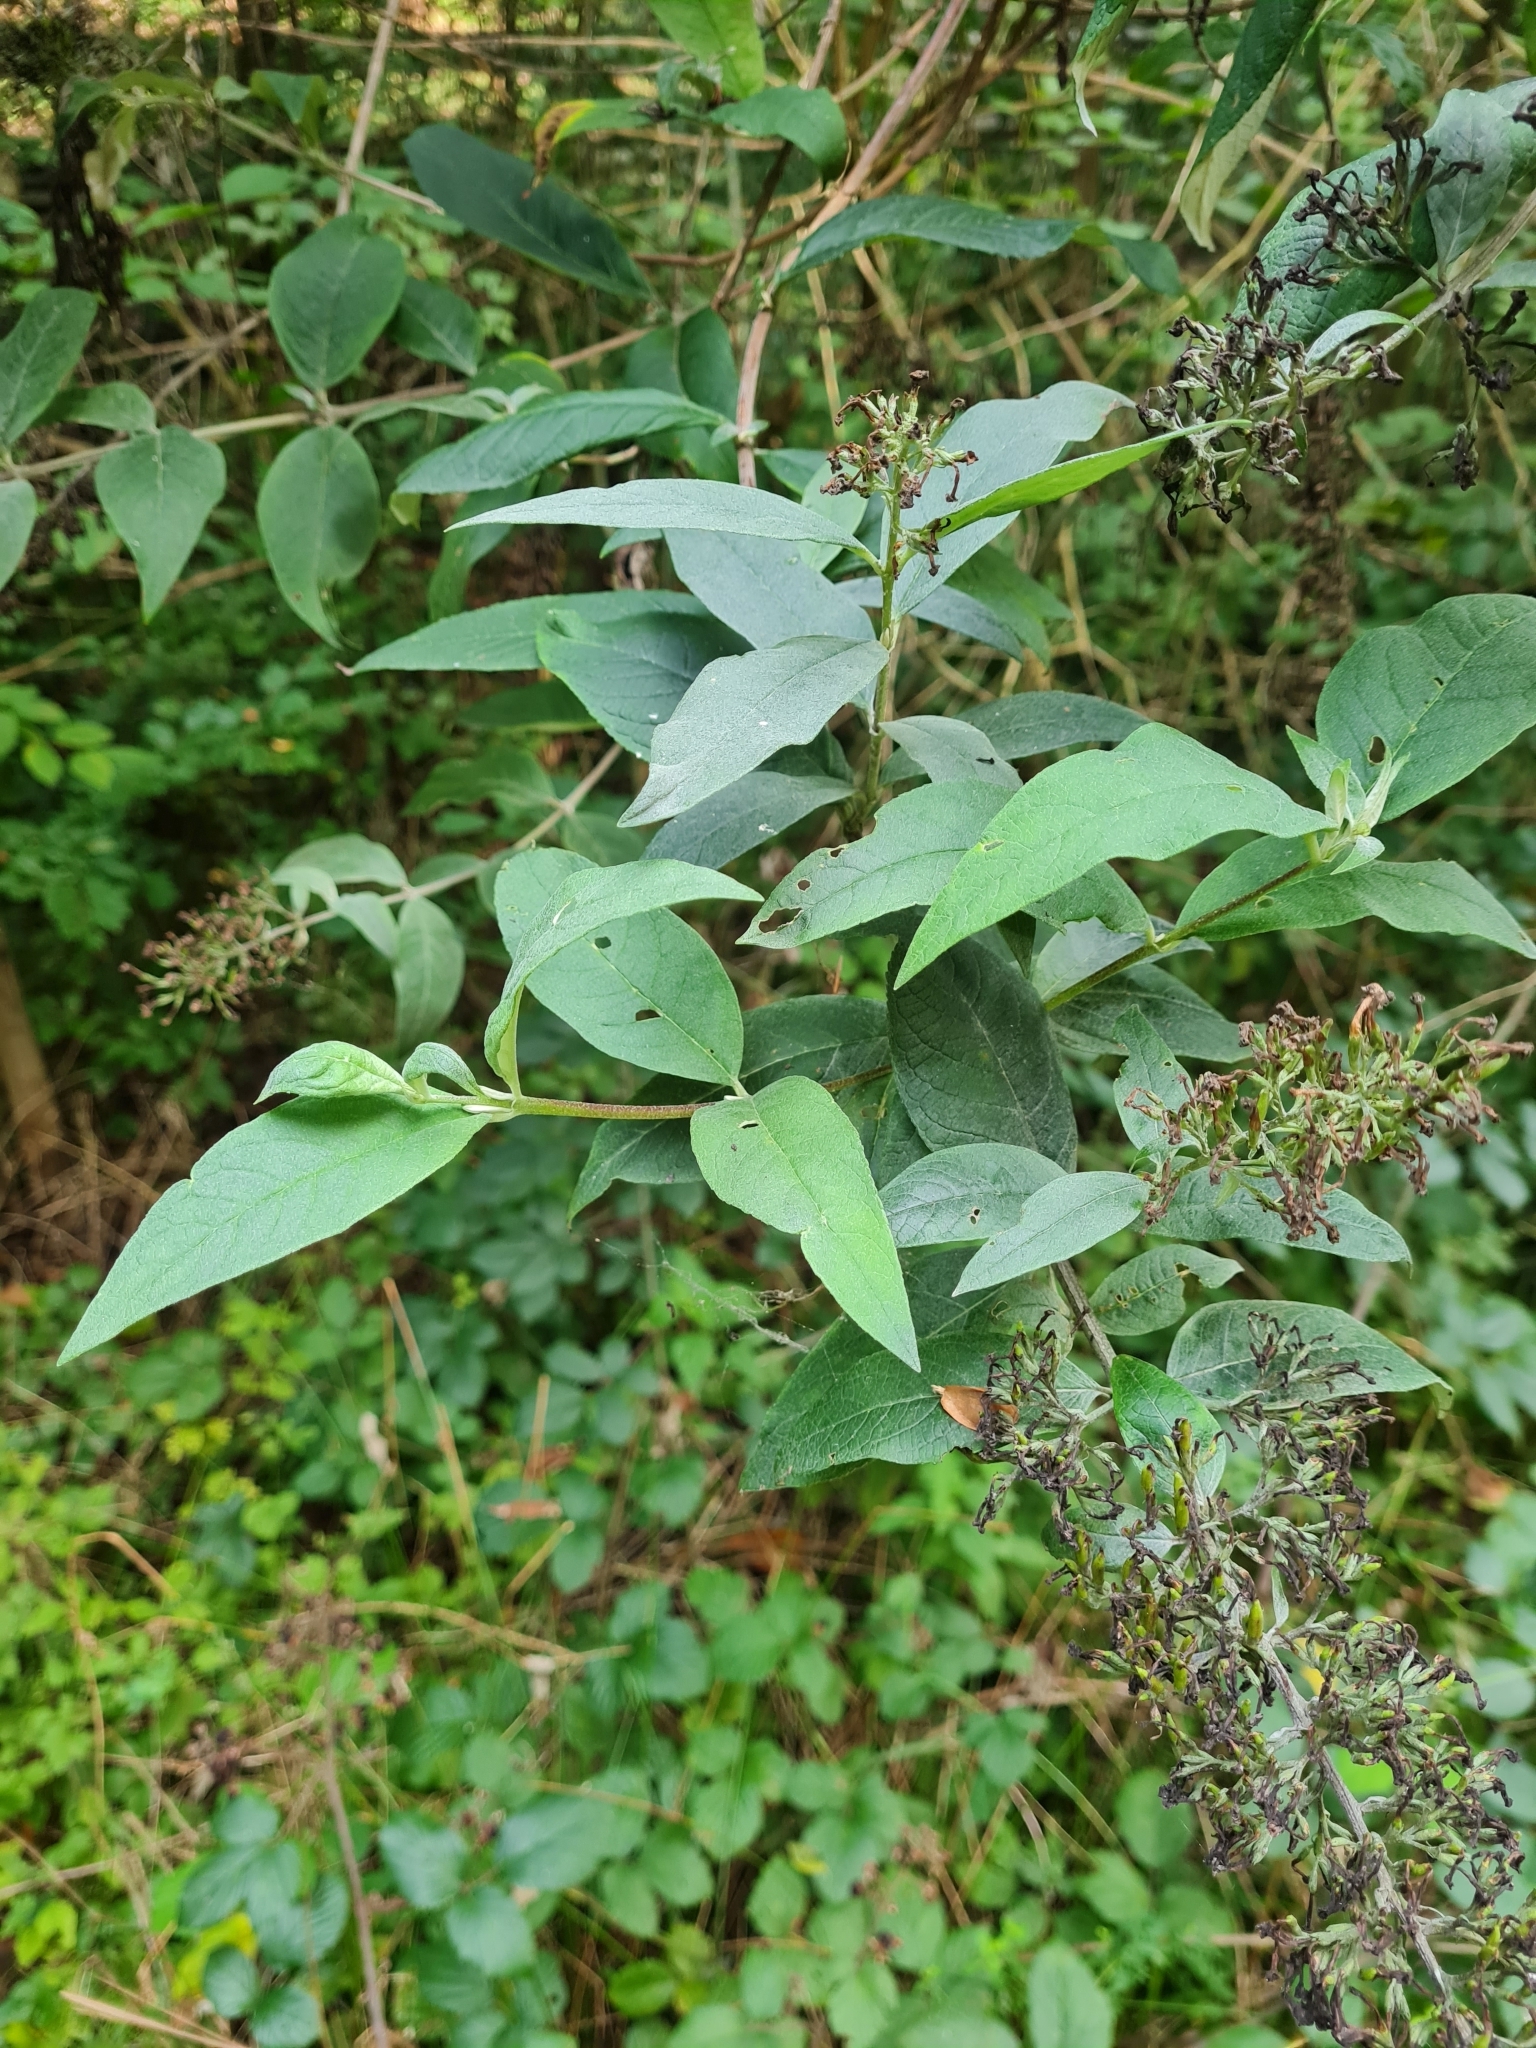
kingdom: Plantae
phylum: Tracheophyta
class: Magnoliopsida
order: Lamiales
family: Scrophulariaceae
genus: Buddleja
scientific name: Buddleja davidii
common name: Butterfly-bush
